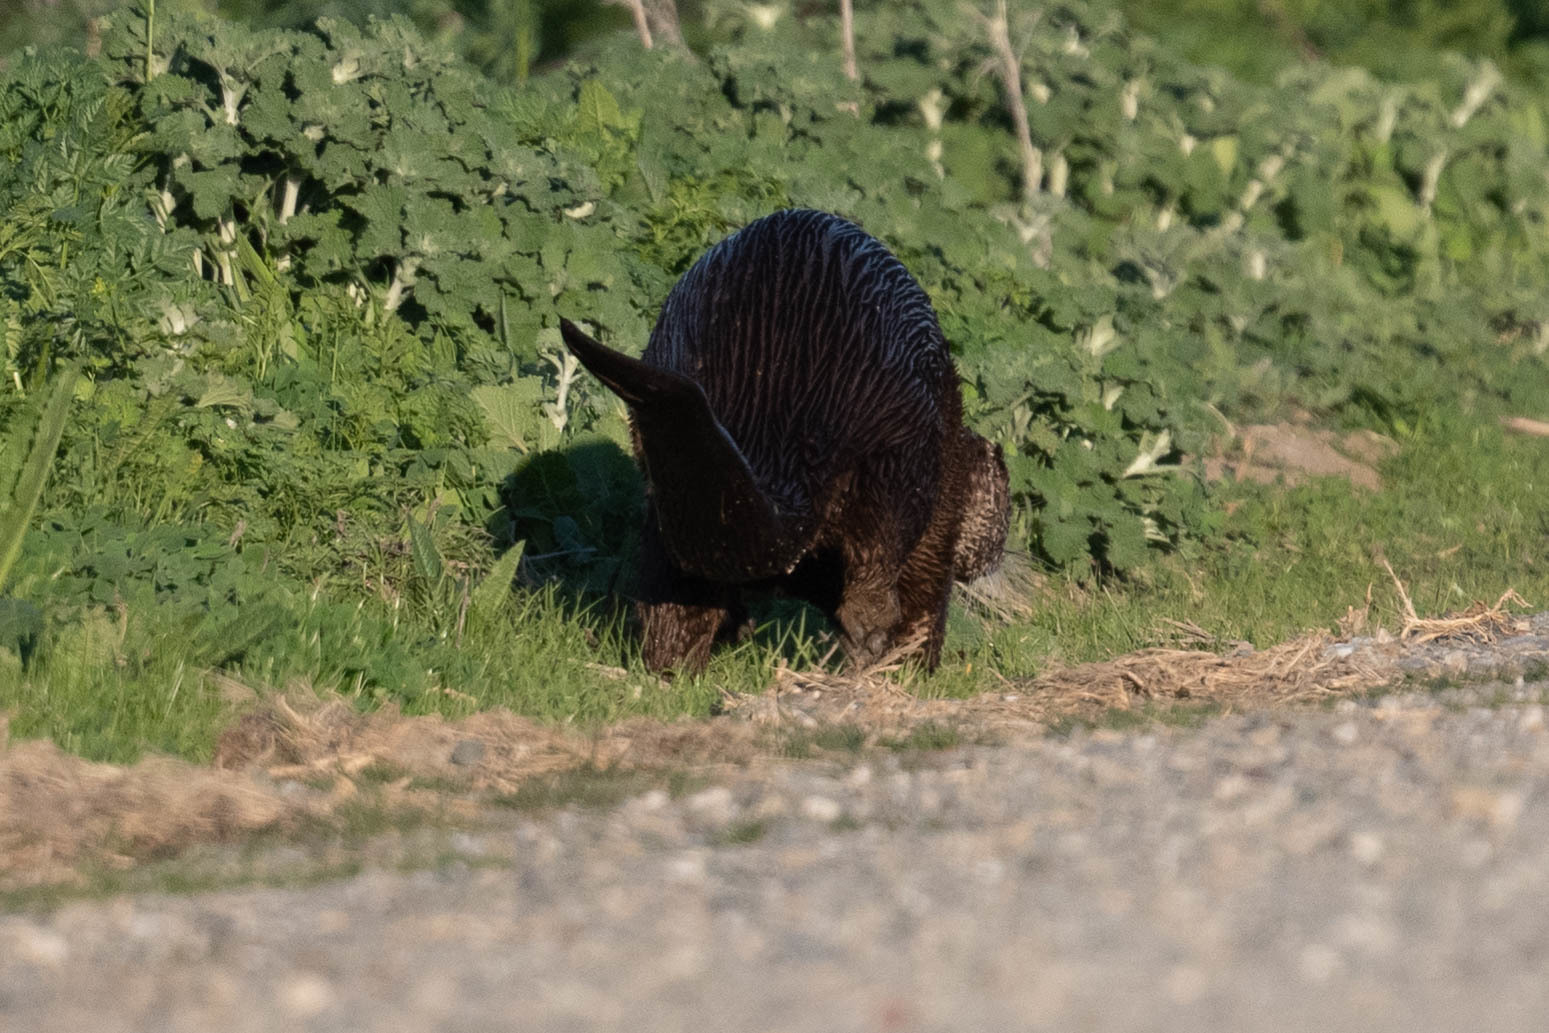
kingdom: Animalia
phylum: Chordata
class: Mammalia
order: Carnivora
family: Mustelidae
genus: Lontra
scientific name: Lontra canadensis
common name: North american river otter
